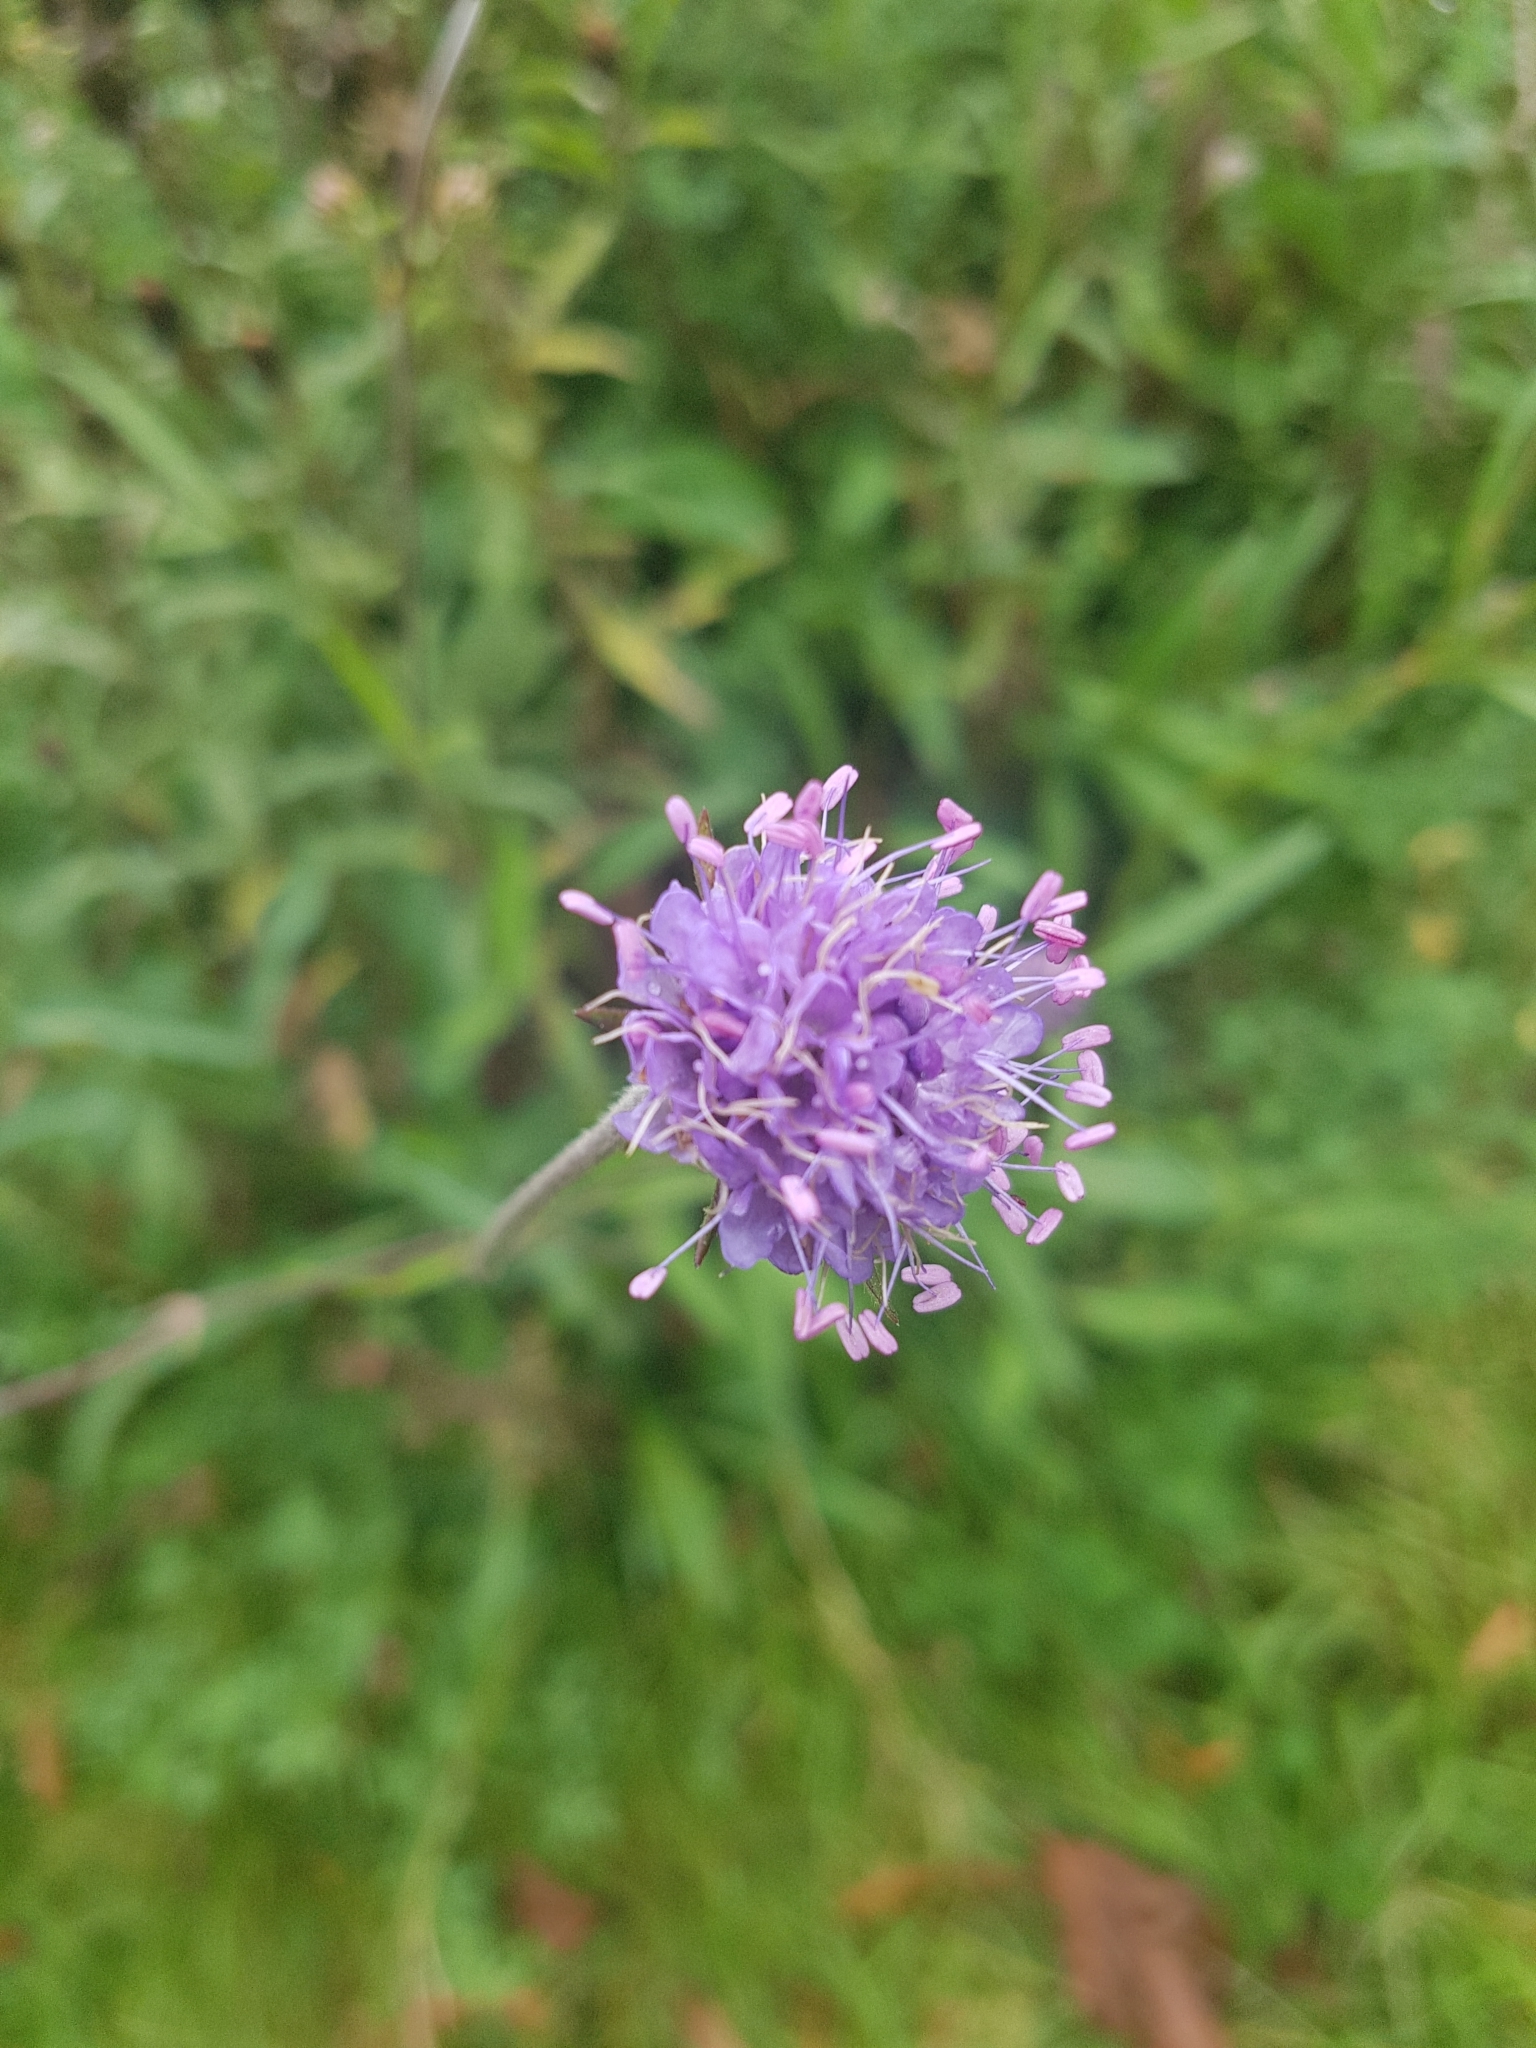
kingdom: Plantae
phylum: Tracheophyta
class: Magnoliopsida
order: Dipsacales
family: Caprifoliaceae
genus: Succisa
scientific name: Succisa pratensis
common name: Devil's-bit
